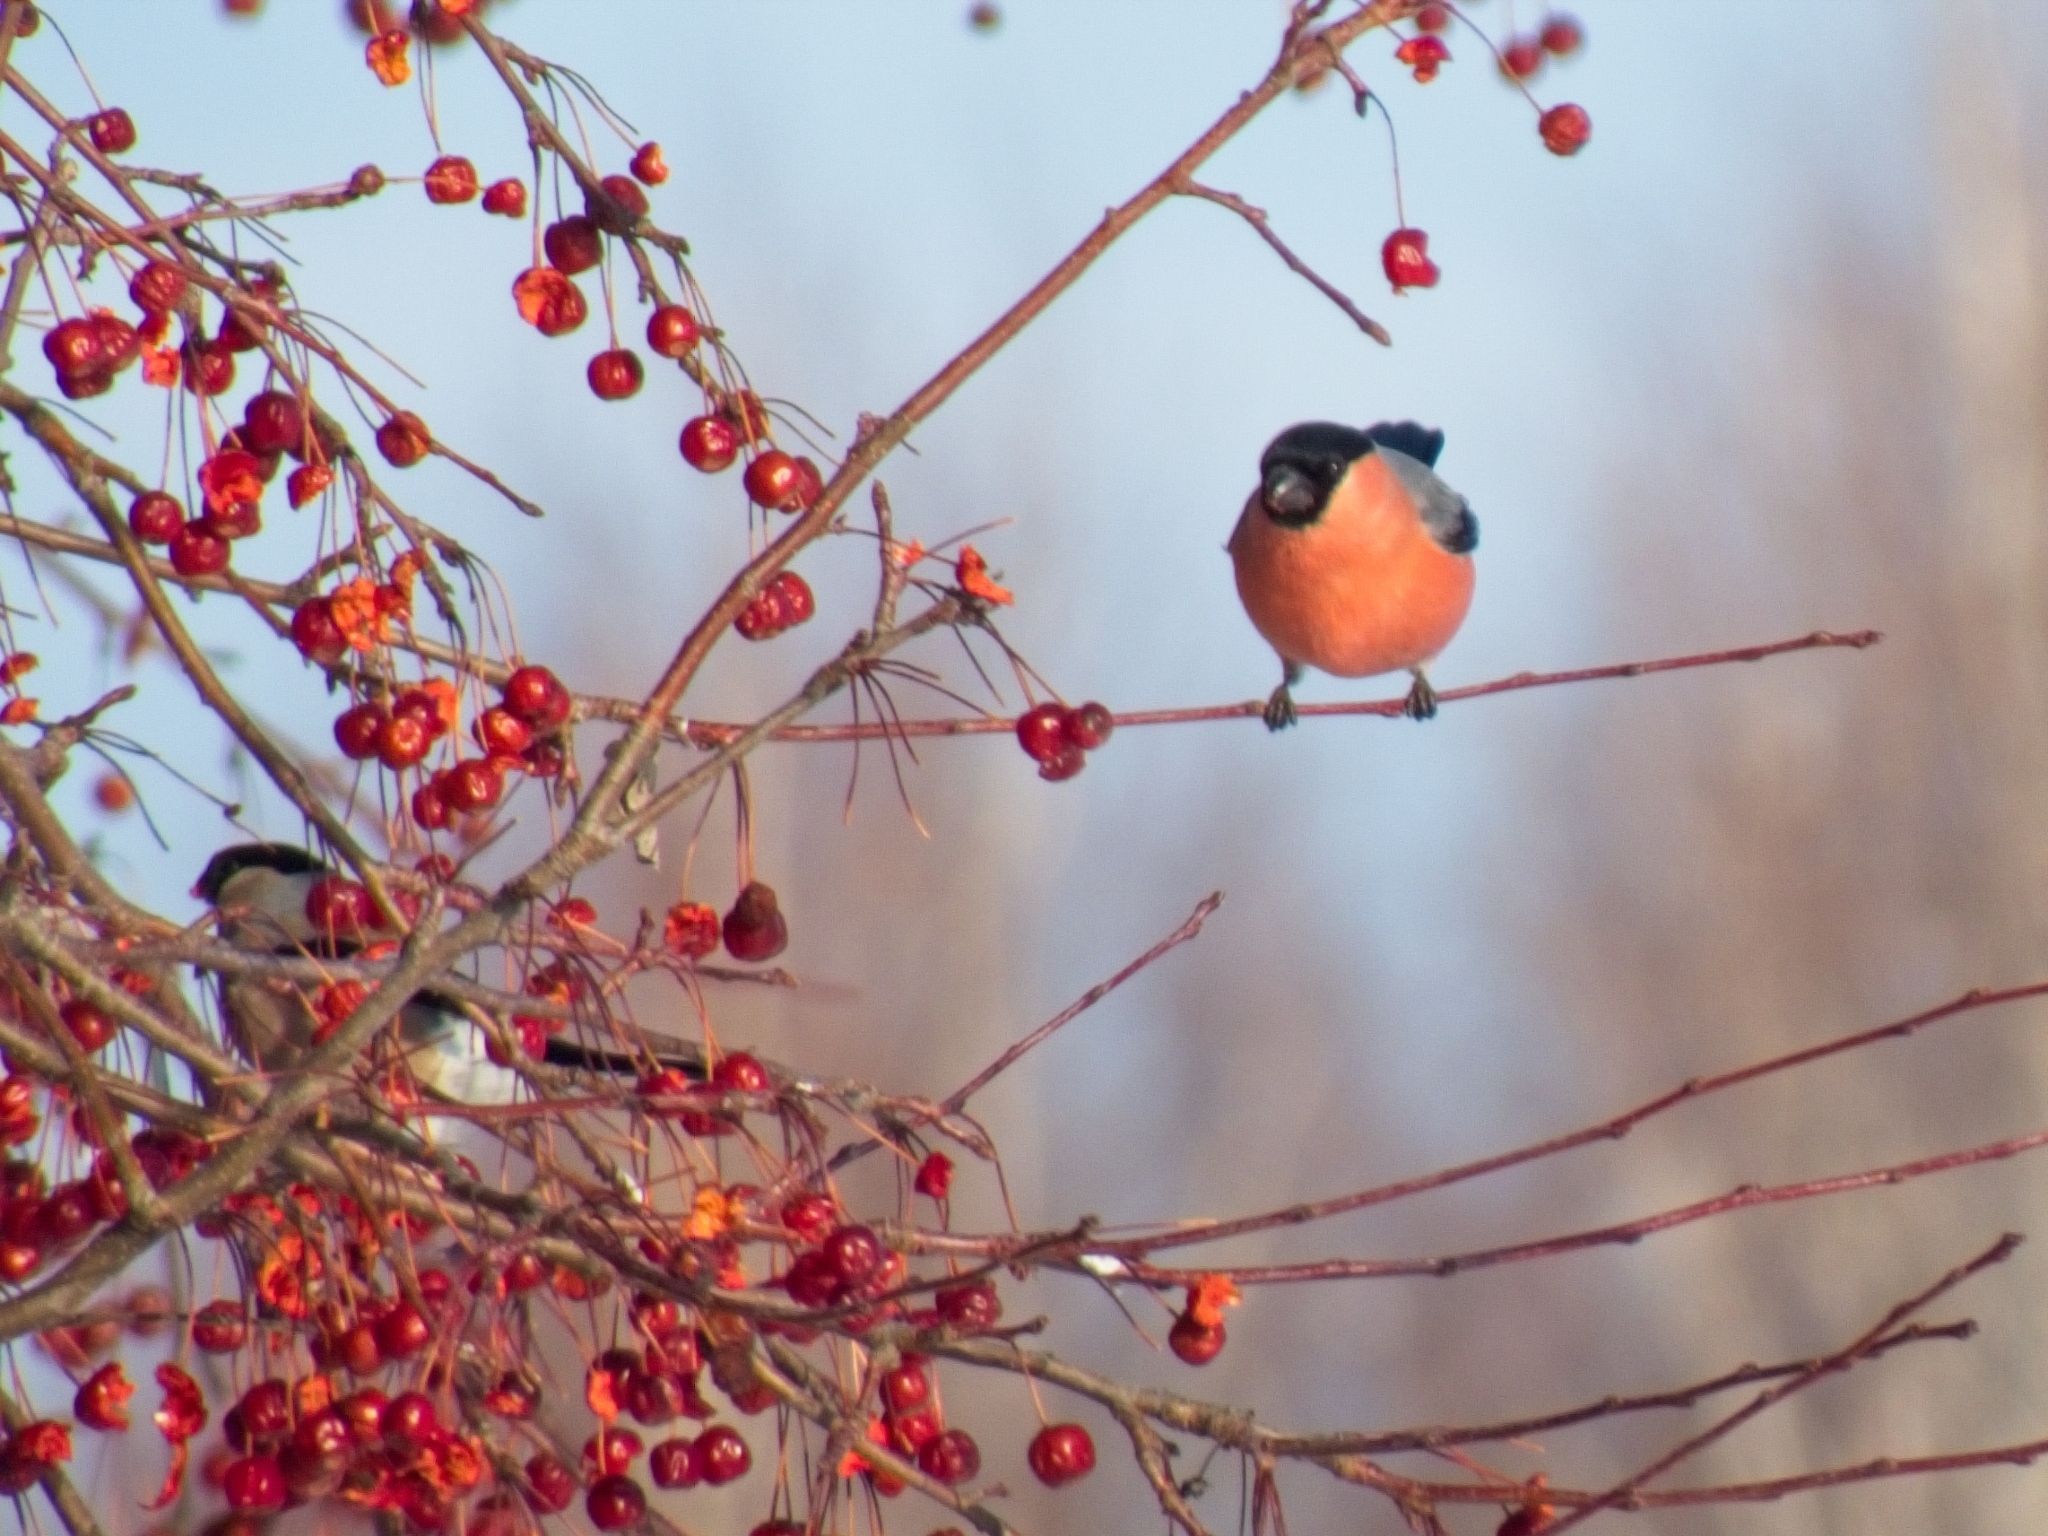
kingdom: Animalia
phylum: Chordata
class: Aves
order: Passeriformes
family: Fringillidae
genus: Pyrrhula
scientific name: Pyrrhula pyrrhula
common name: Eurasian bullfinch
